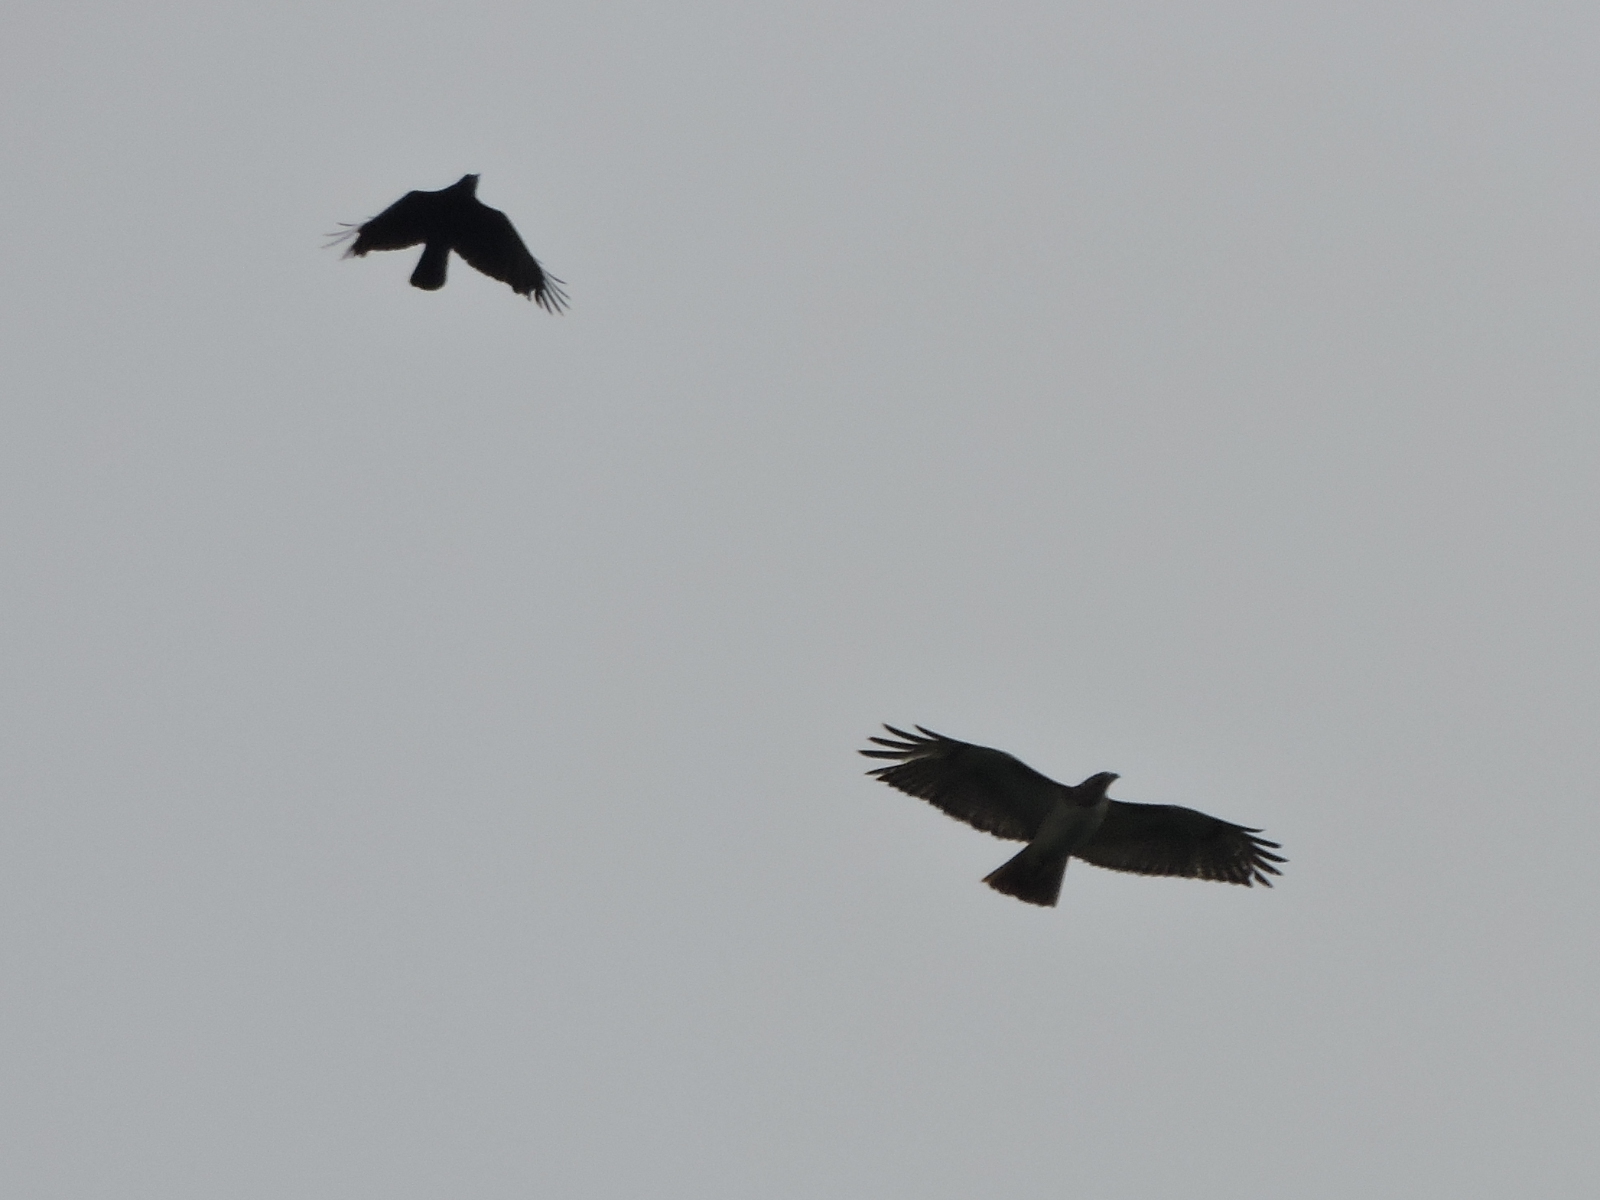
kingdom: Animalia
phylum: Chordata
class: Aves
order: Accipitriformes
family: Accipitridae
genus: Buteo
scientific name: Buteo jamaicensis
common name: Red-tailed hawk
